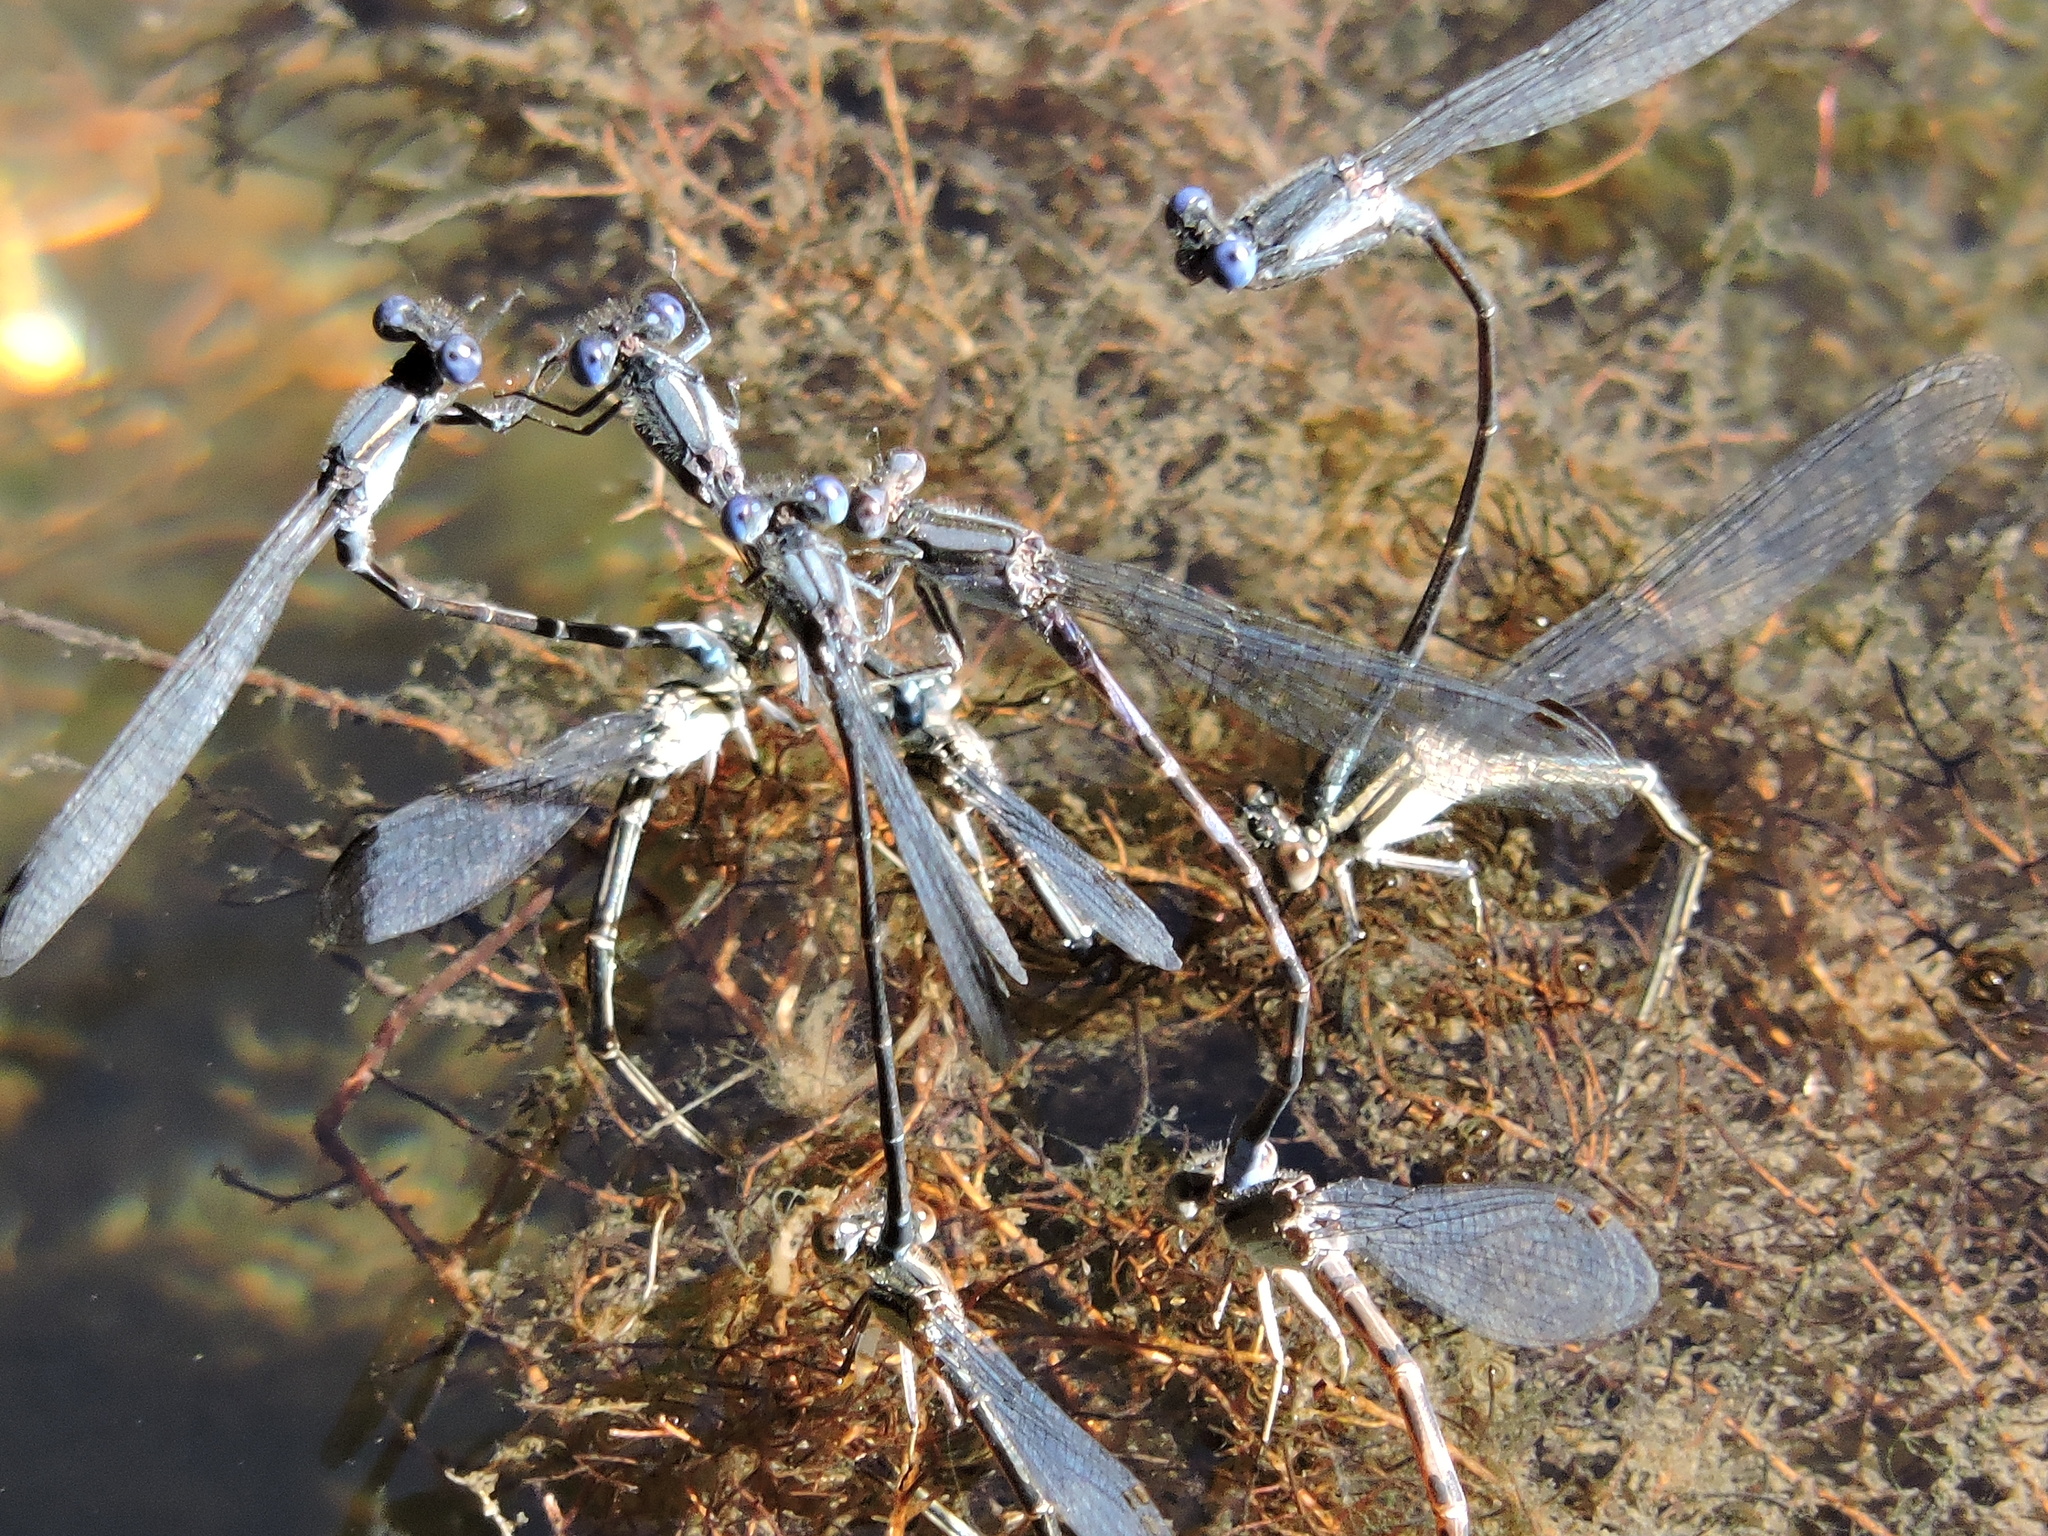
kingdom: Animalia
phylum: Arthropoda
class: Insecta
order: Odonata
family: Coenagrionidae
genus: Argia
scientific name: Argia translata
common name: Dusky dancer
